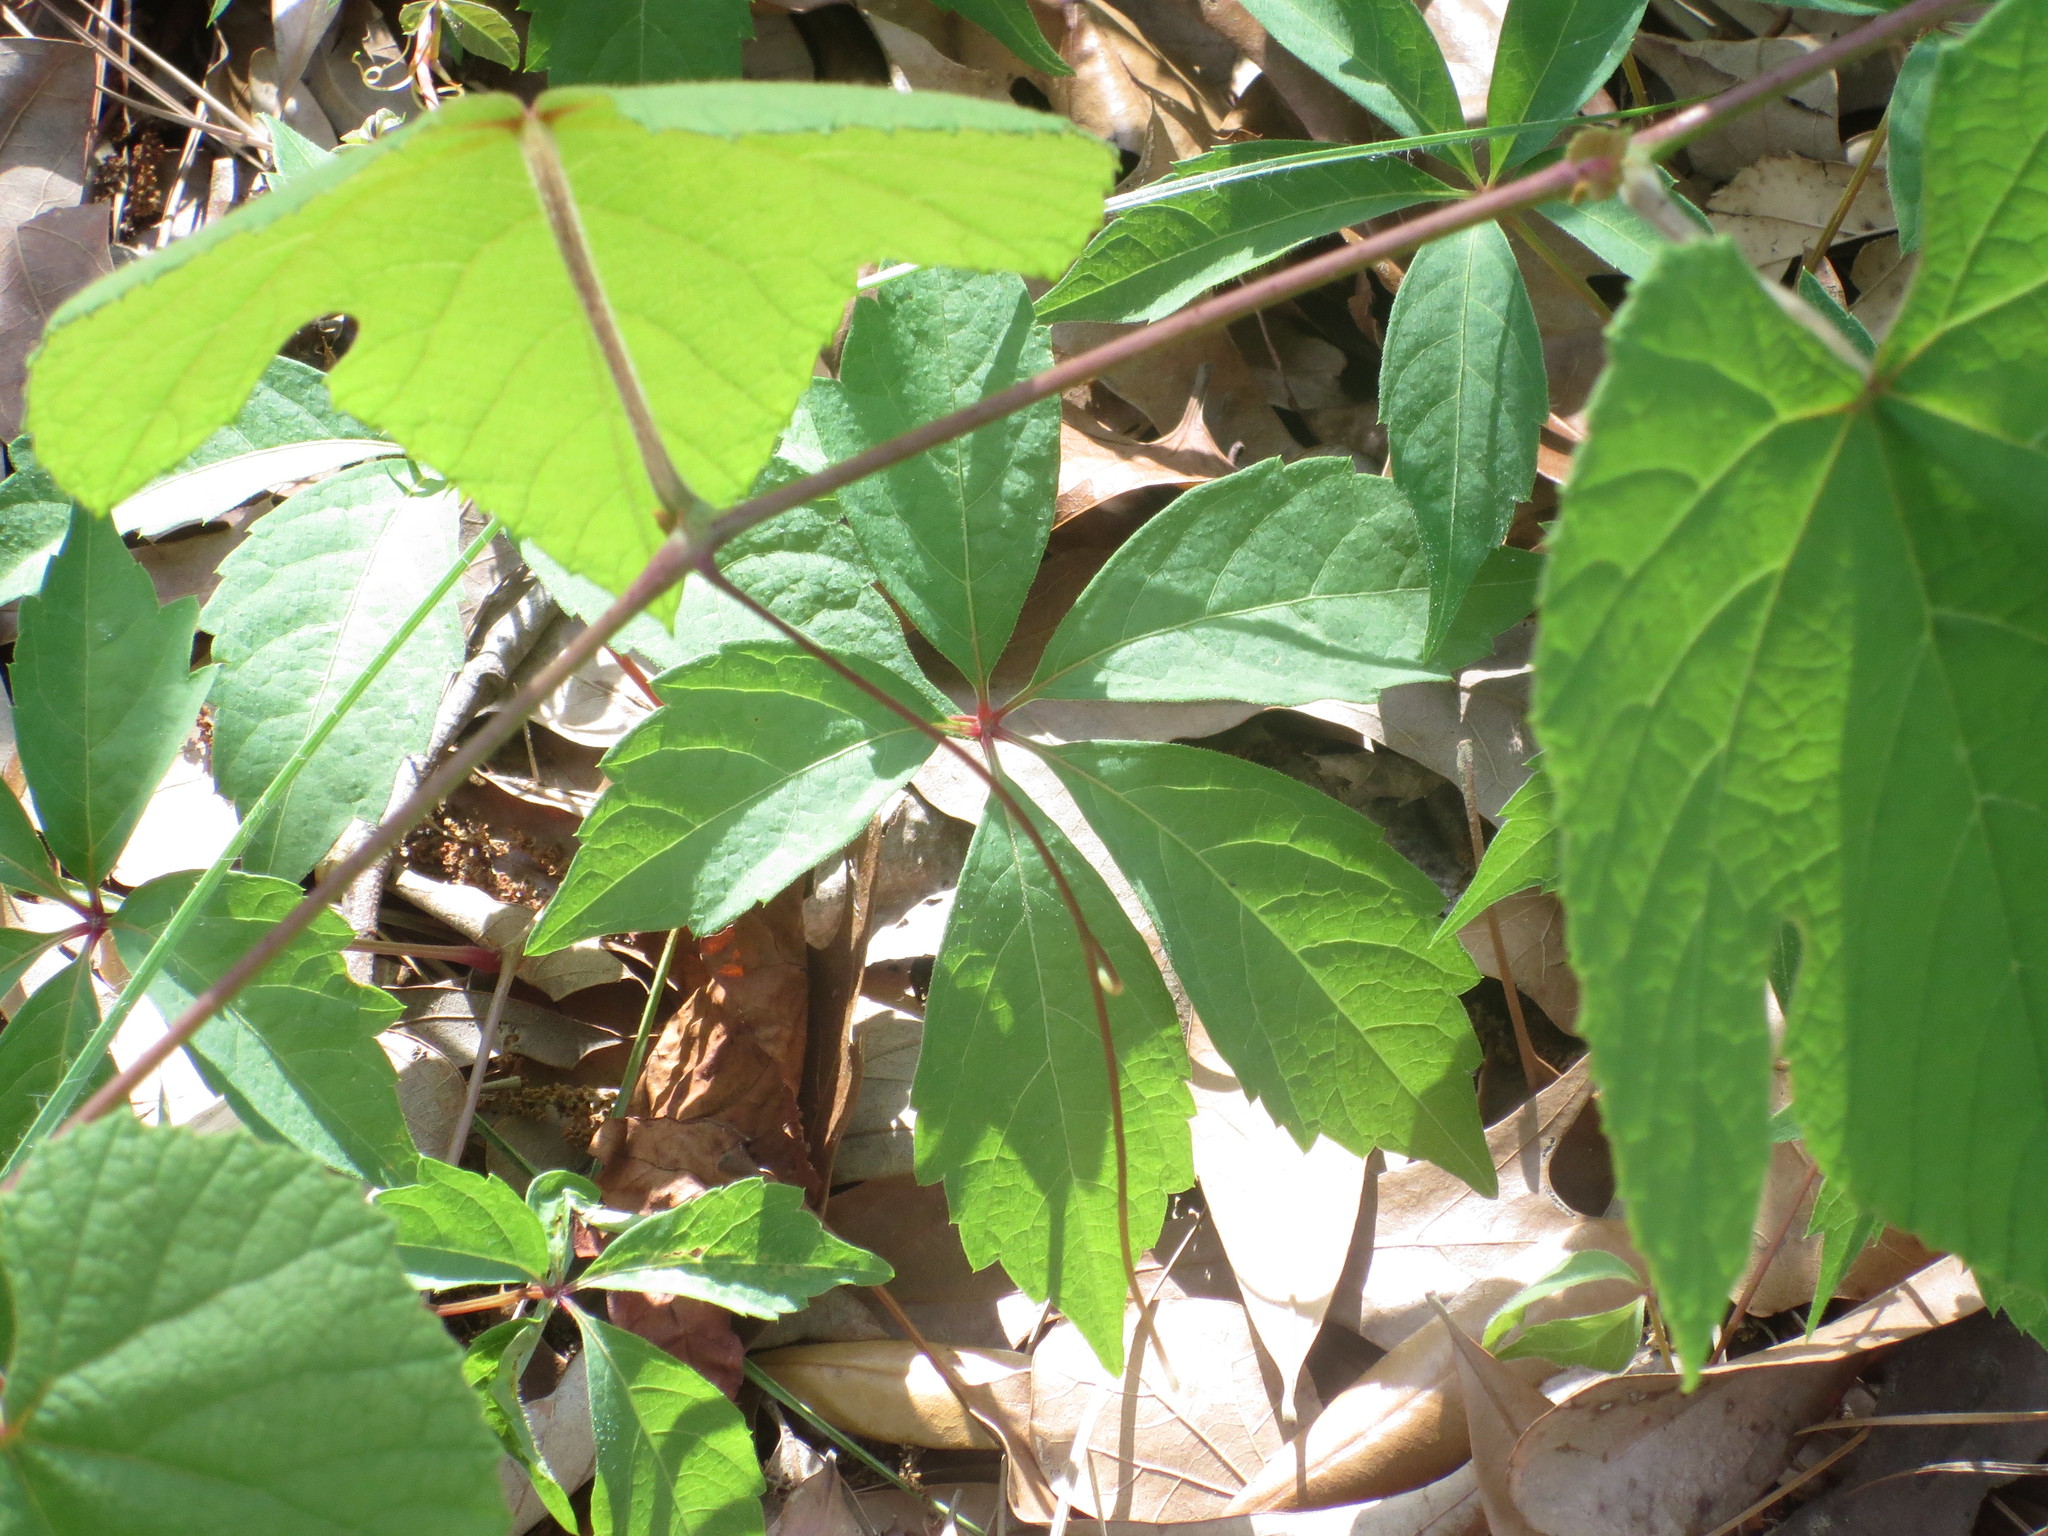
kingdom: Plantae
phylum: Tracheophyta
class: Magnoliopsida
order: Vitales
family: Vitaceae
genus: Parthenocissus
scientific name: Parthenocissus quinquefolia
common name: Virginia-creeper
